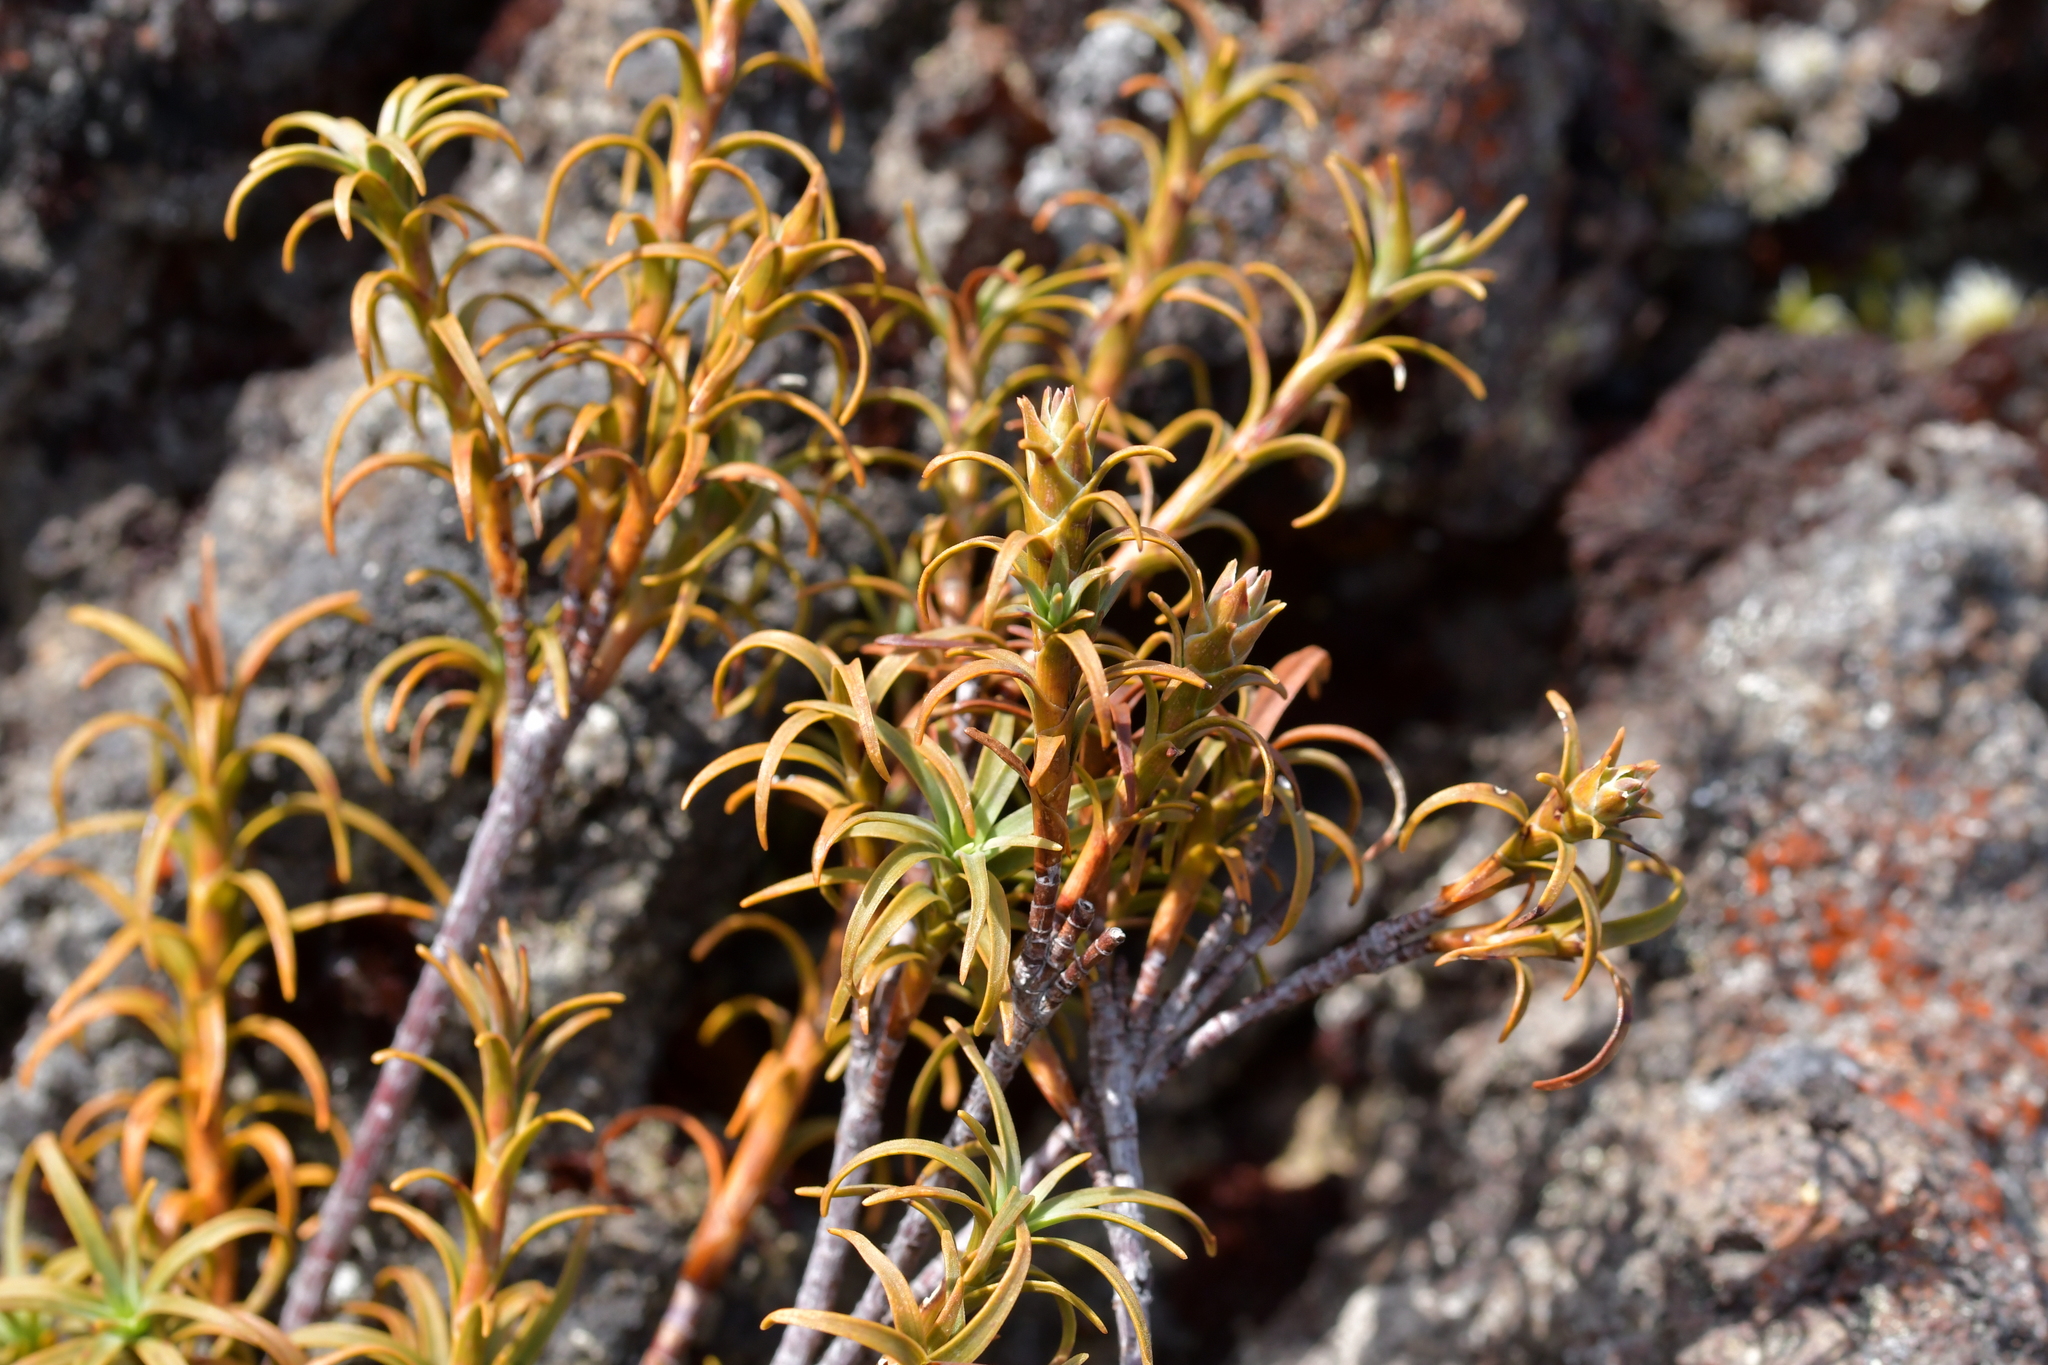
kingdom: Plantae
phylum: Tracheophyta
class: Magnoliopsida
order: Ericales
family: Ericaceae
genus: Dracophyllum
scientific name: Dracophyllum recurvum
